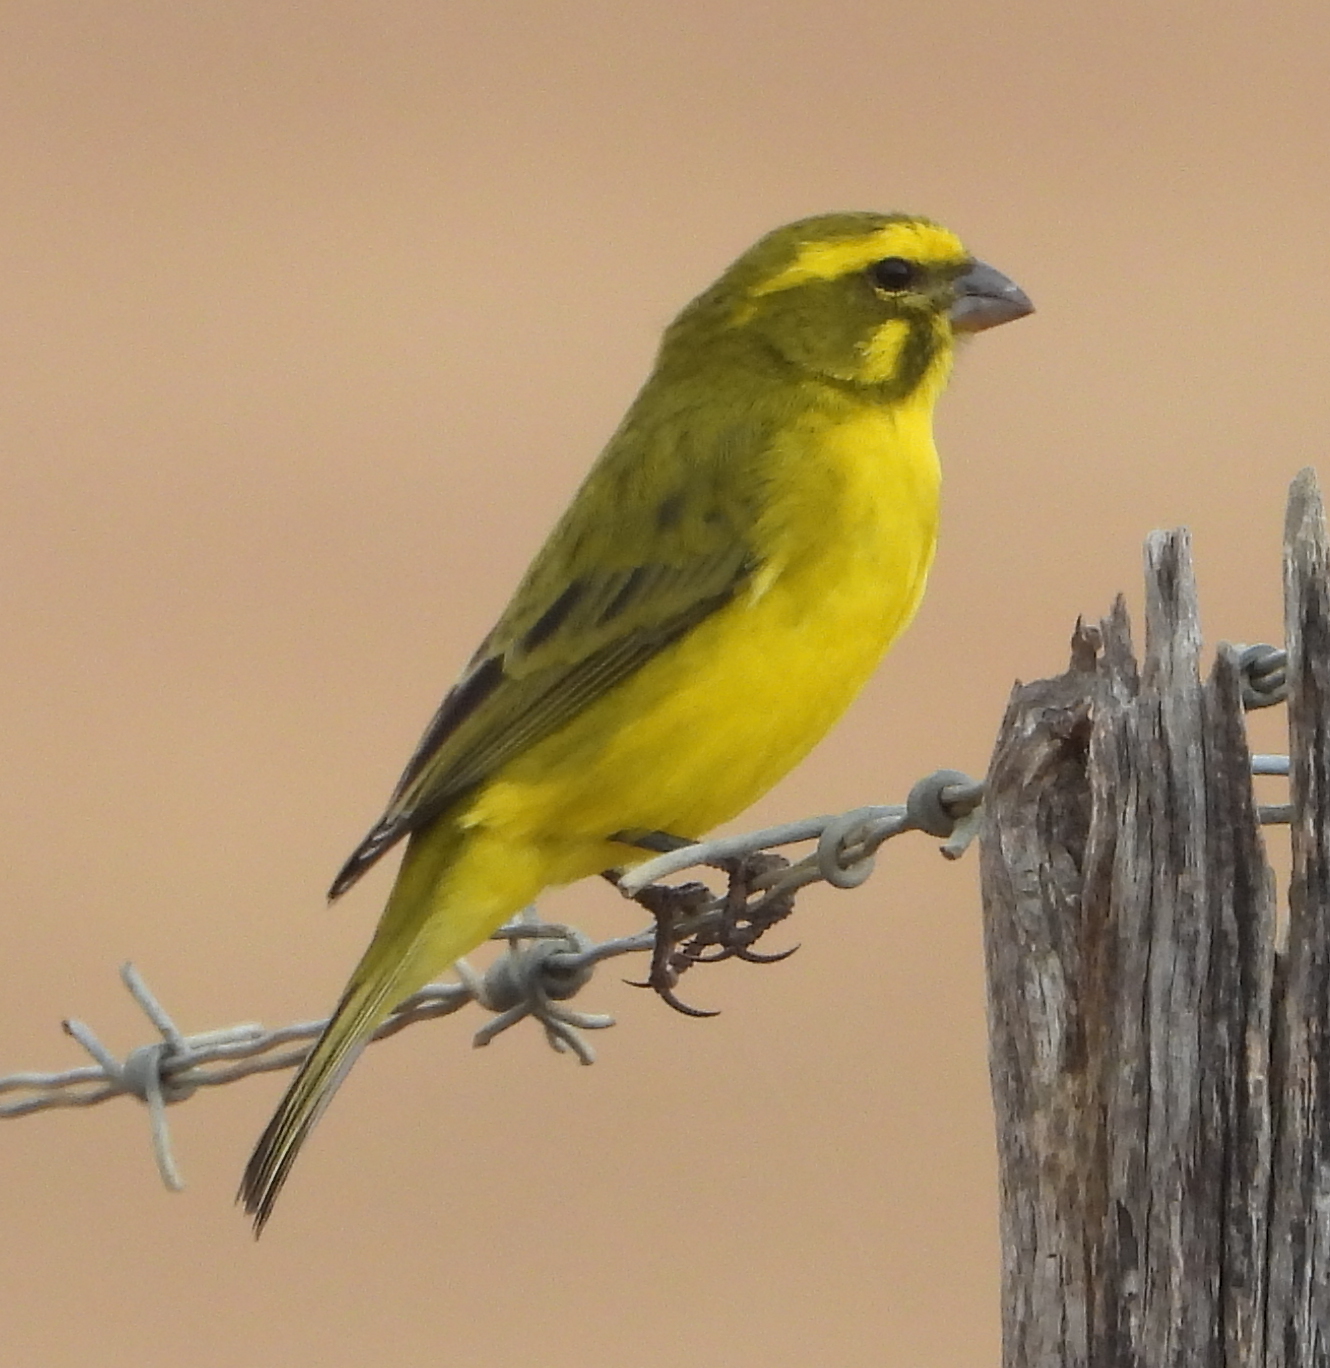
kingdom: Animalia
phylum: Chordata
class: Aves
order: Passeriformes
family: Fringillidae
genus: Crithagra
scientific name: Crithagra flaviventris
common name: Yellow canary
